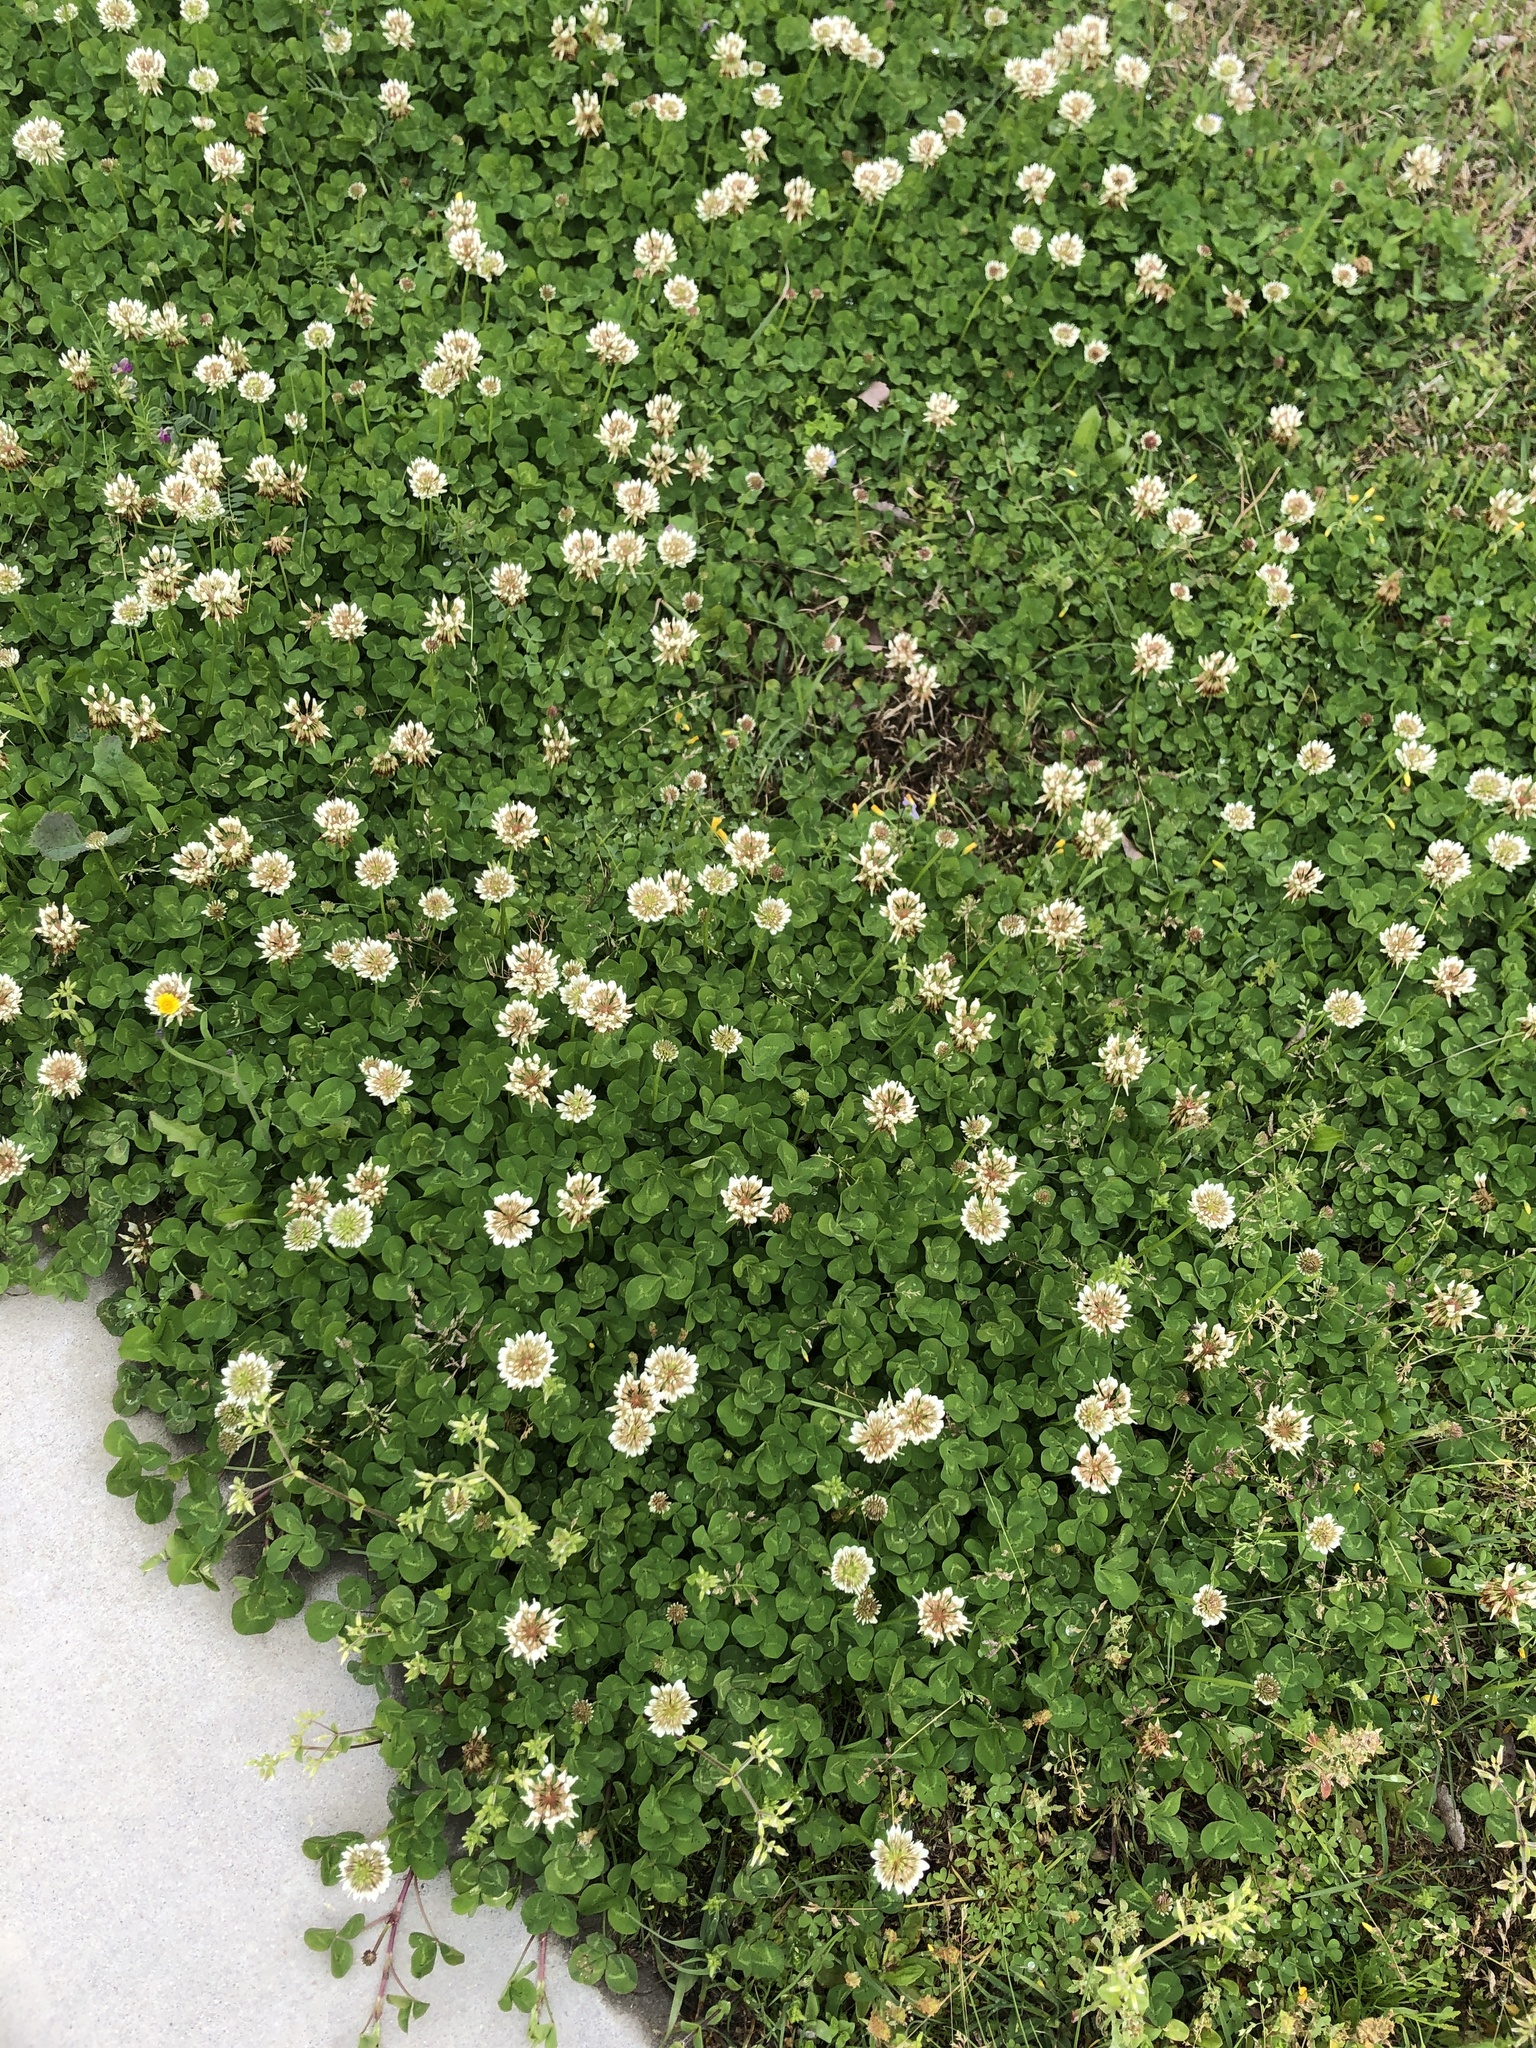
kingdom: Plantae
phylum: Tracheophyta
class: Magnoliopsida
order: Fabales
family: Fabaceae
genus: Trifolium
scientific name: Trifolium repens
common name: White clover
